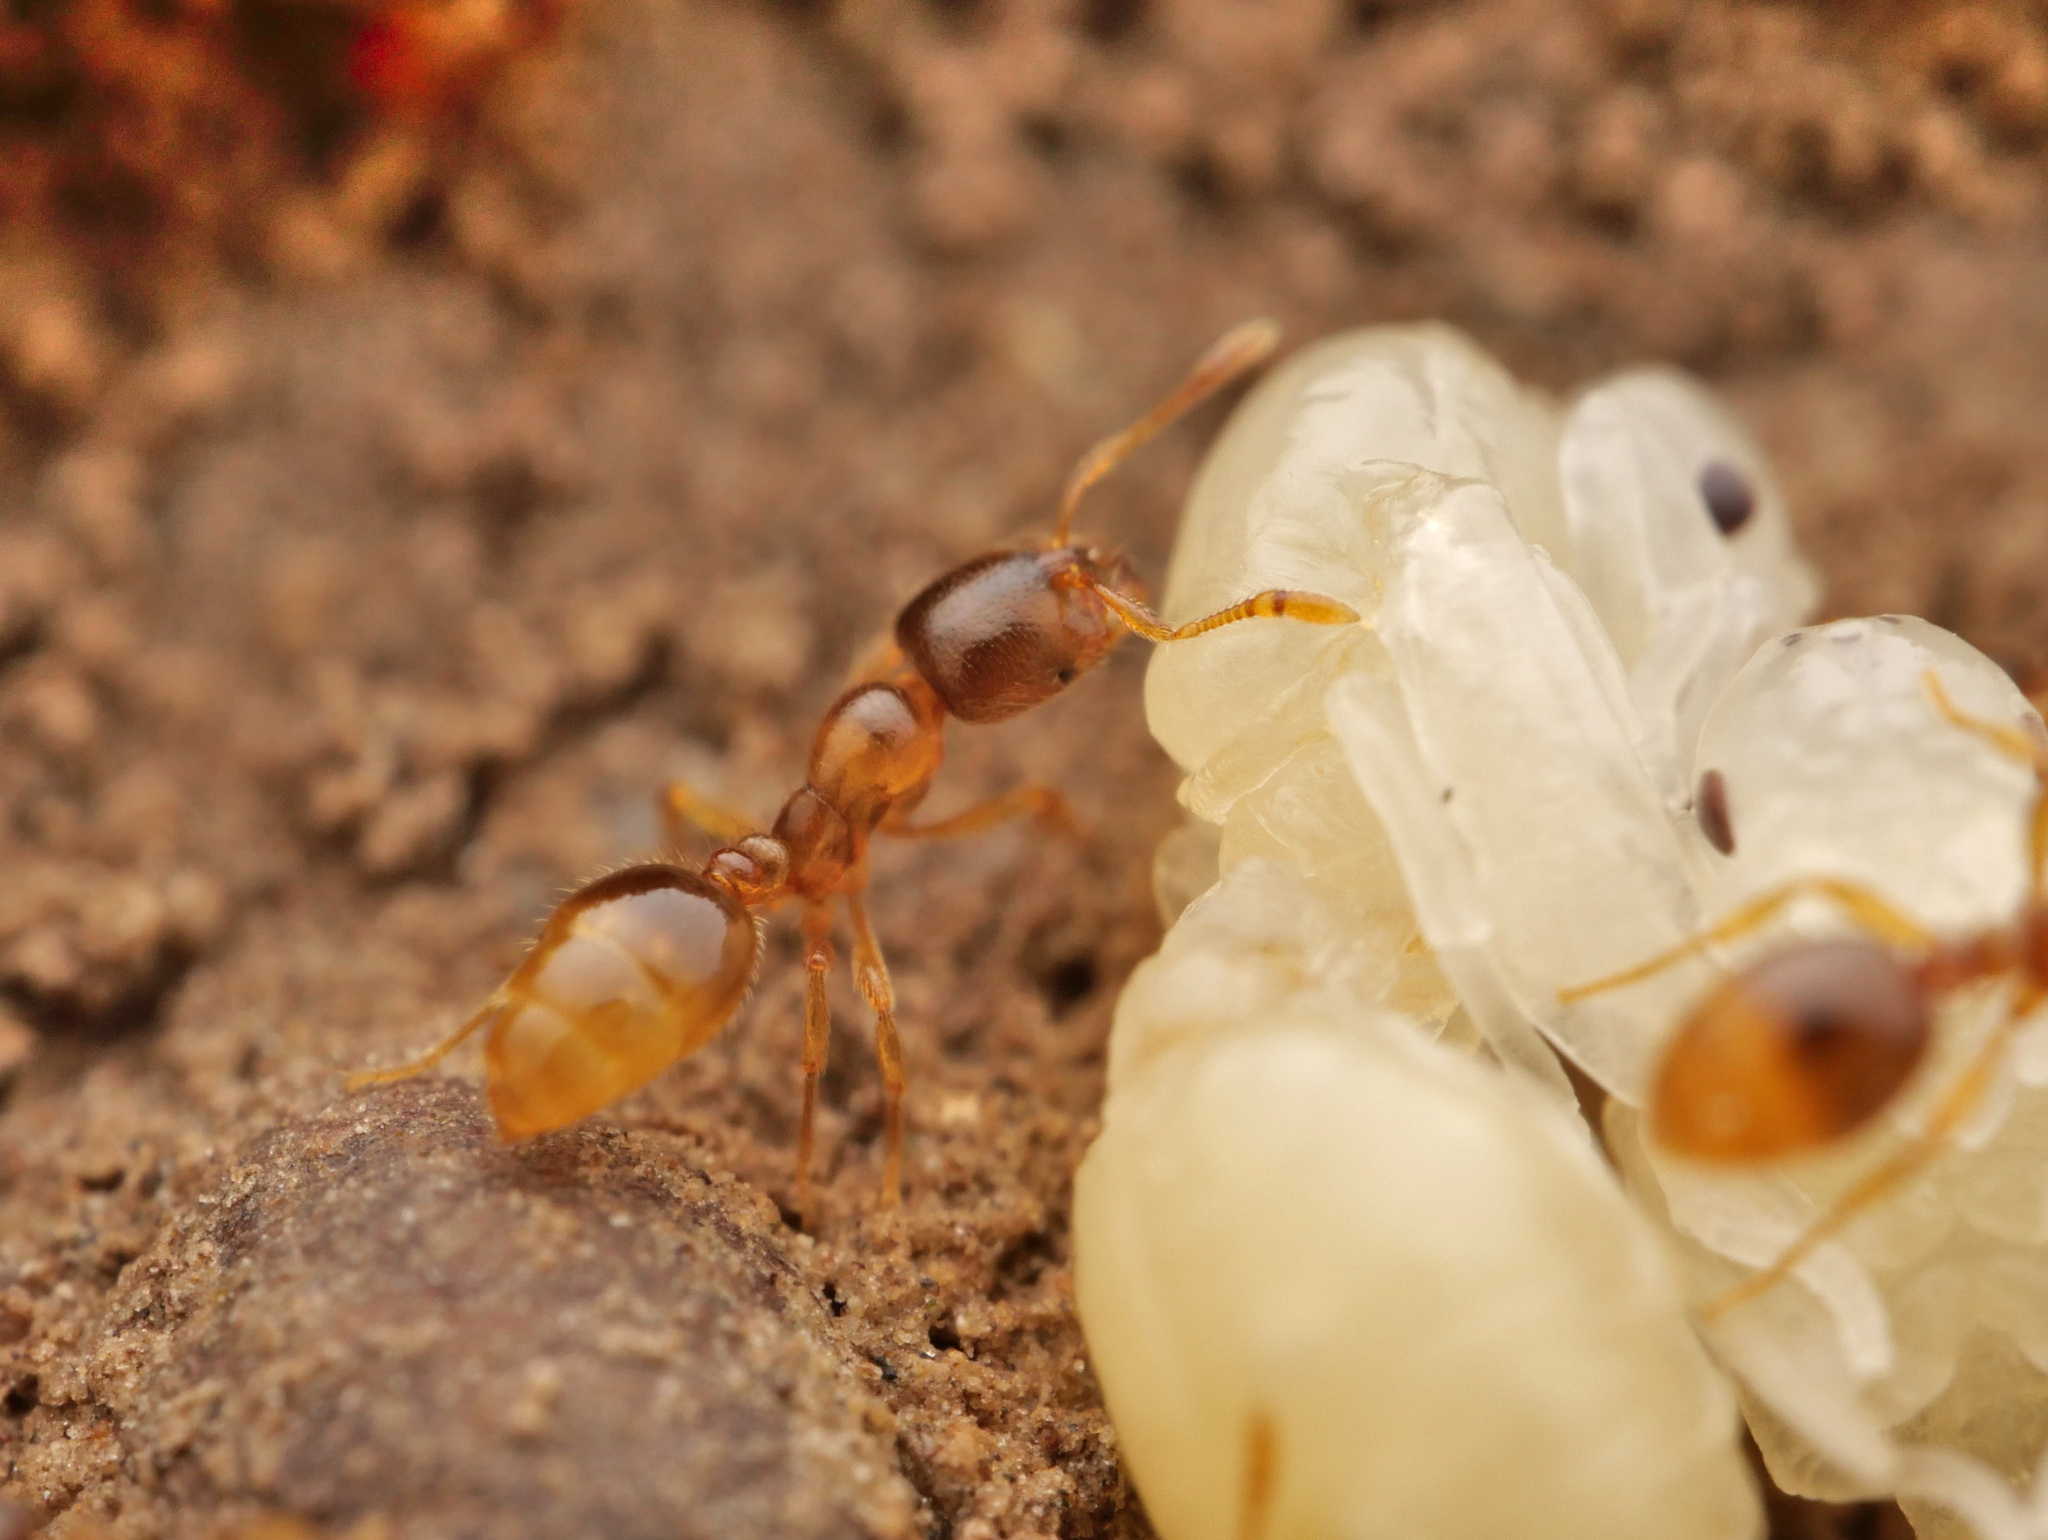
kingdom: Animalia
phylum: Arthropoda
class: Insecta
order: Hymenoptera
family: Formicidae
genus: Solenopsis
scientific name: Solenopsis fugax
